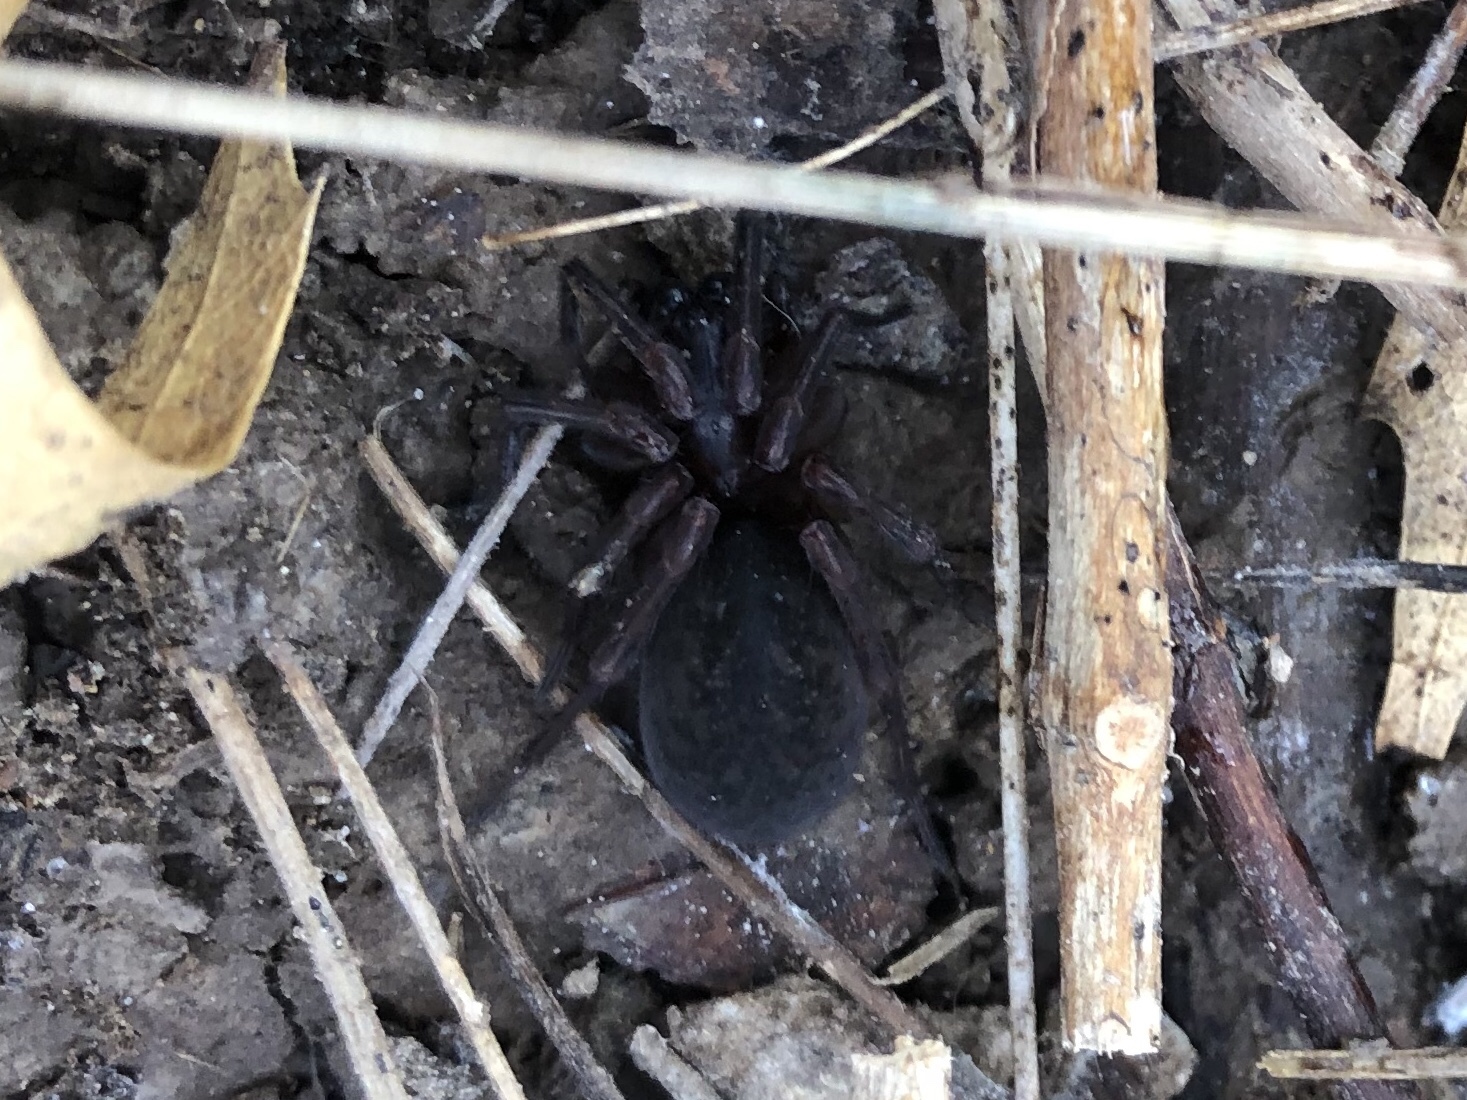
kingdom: Animalia
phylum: Arthropoda
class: Arachnida
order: Araneae
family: Amaurobiidae
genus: Amaurobius
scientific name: Amaurobius ferox
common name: Black laceweaver
